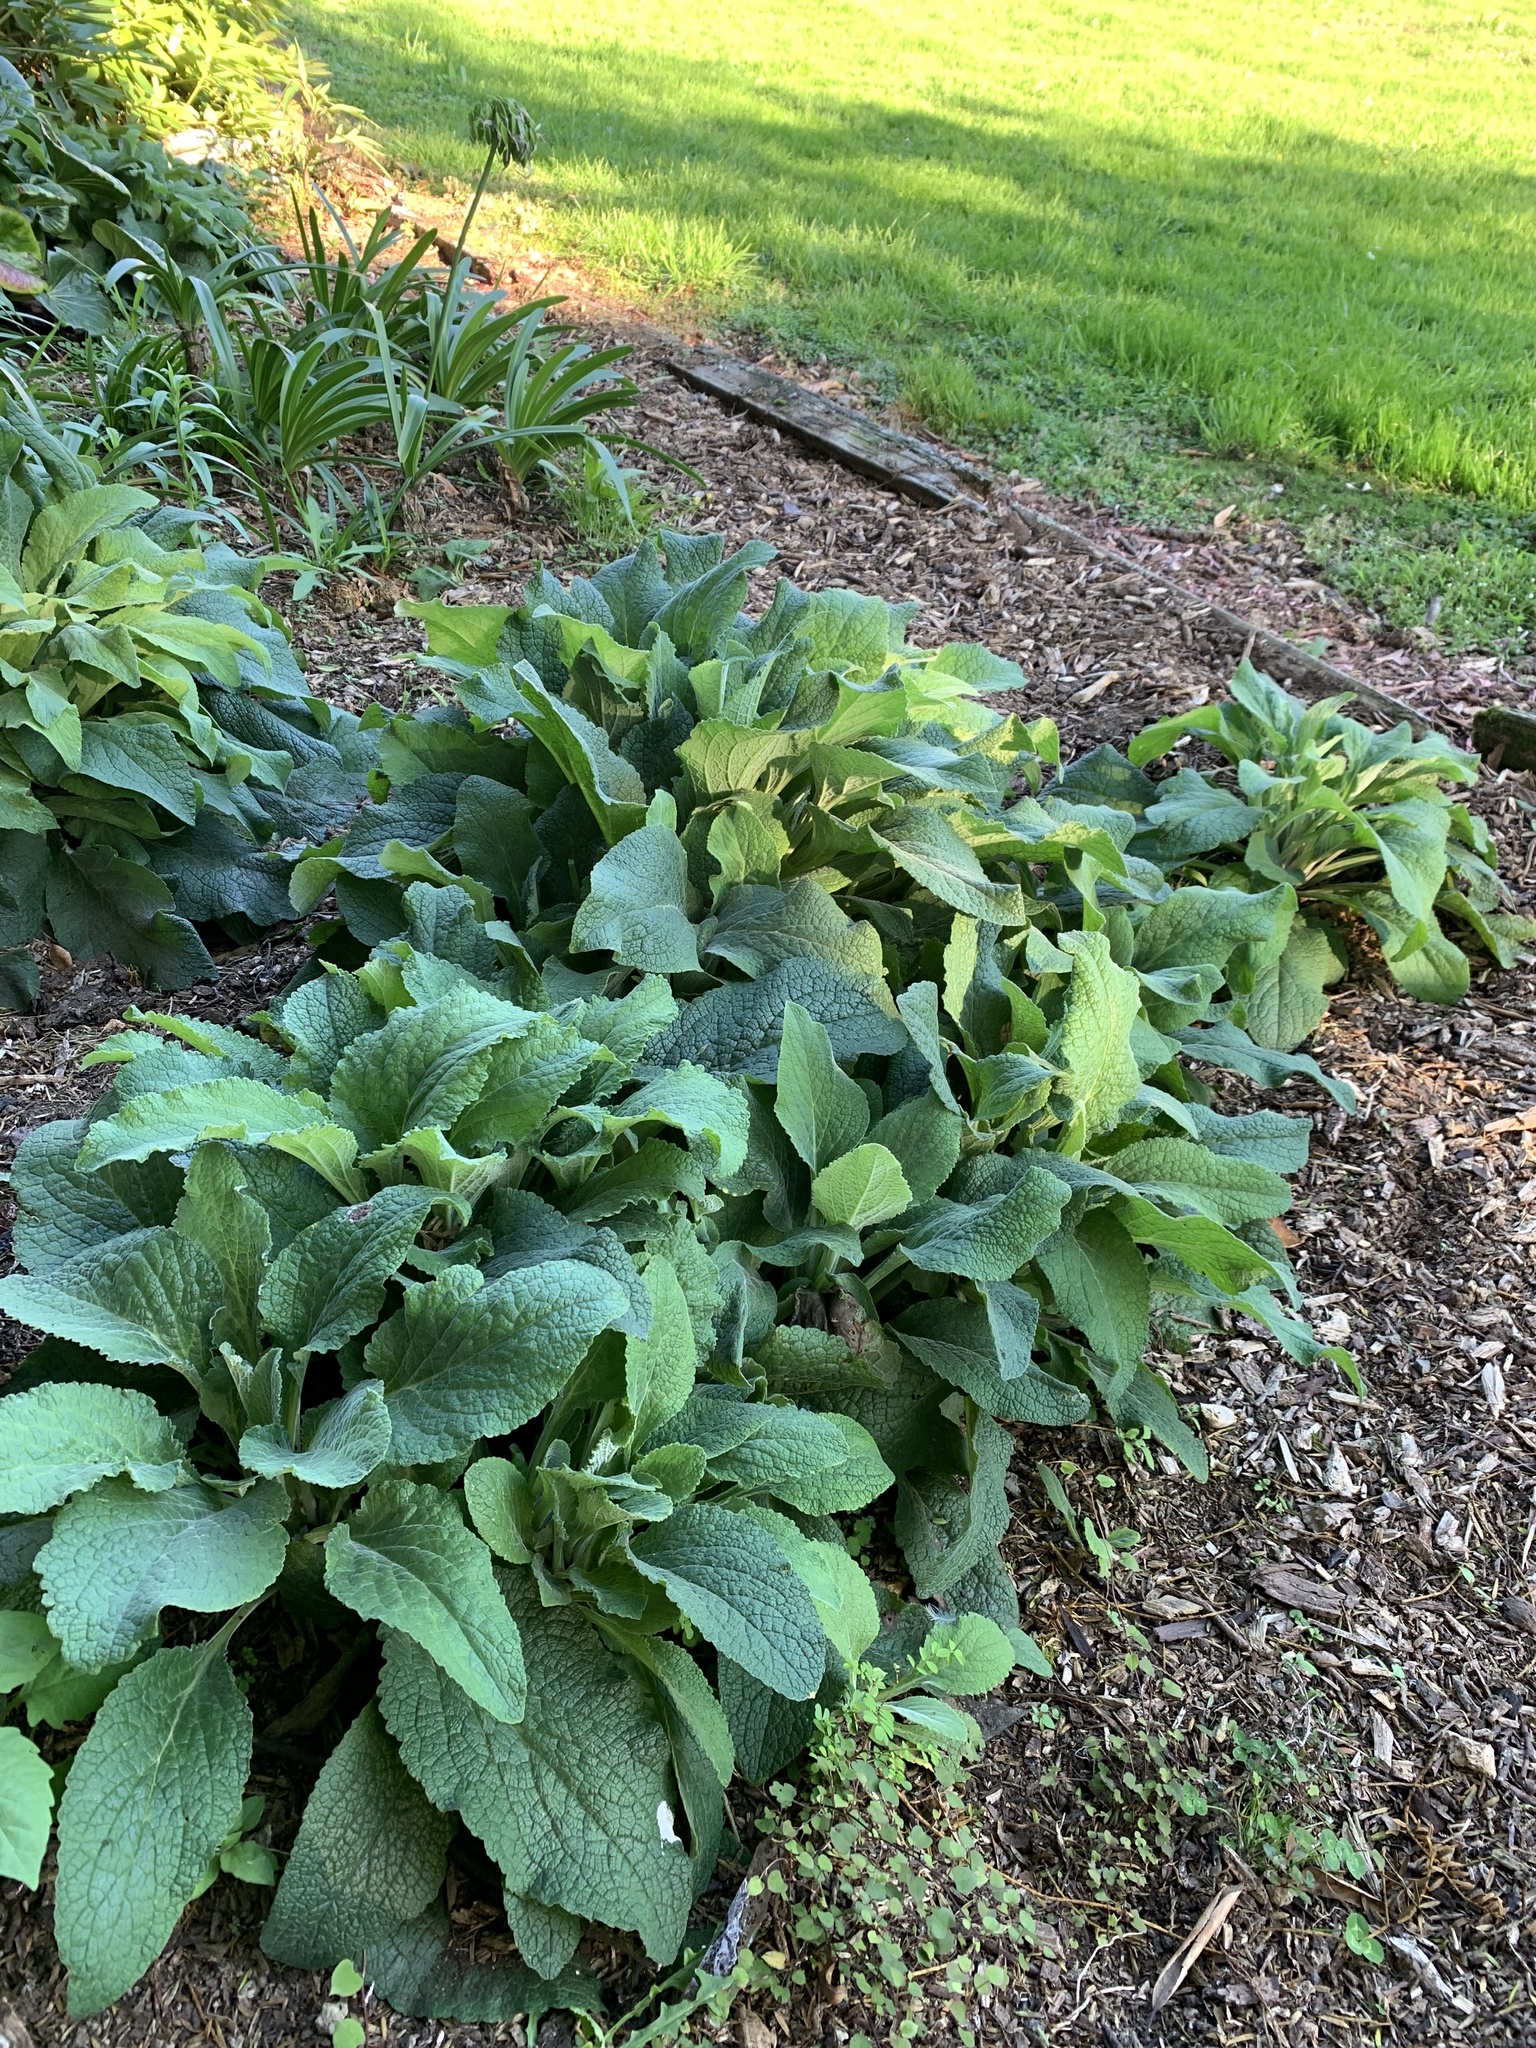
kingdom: Plantae
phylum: Tracheophyta
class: Magnoliopsida
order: Lamiales
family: Plantaginaceae
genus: Digitalis
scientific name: Digitalis purpurea
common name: Foxglove
